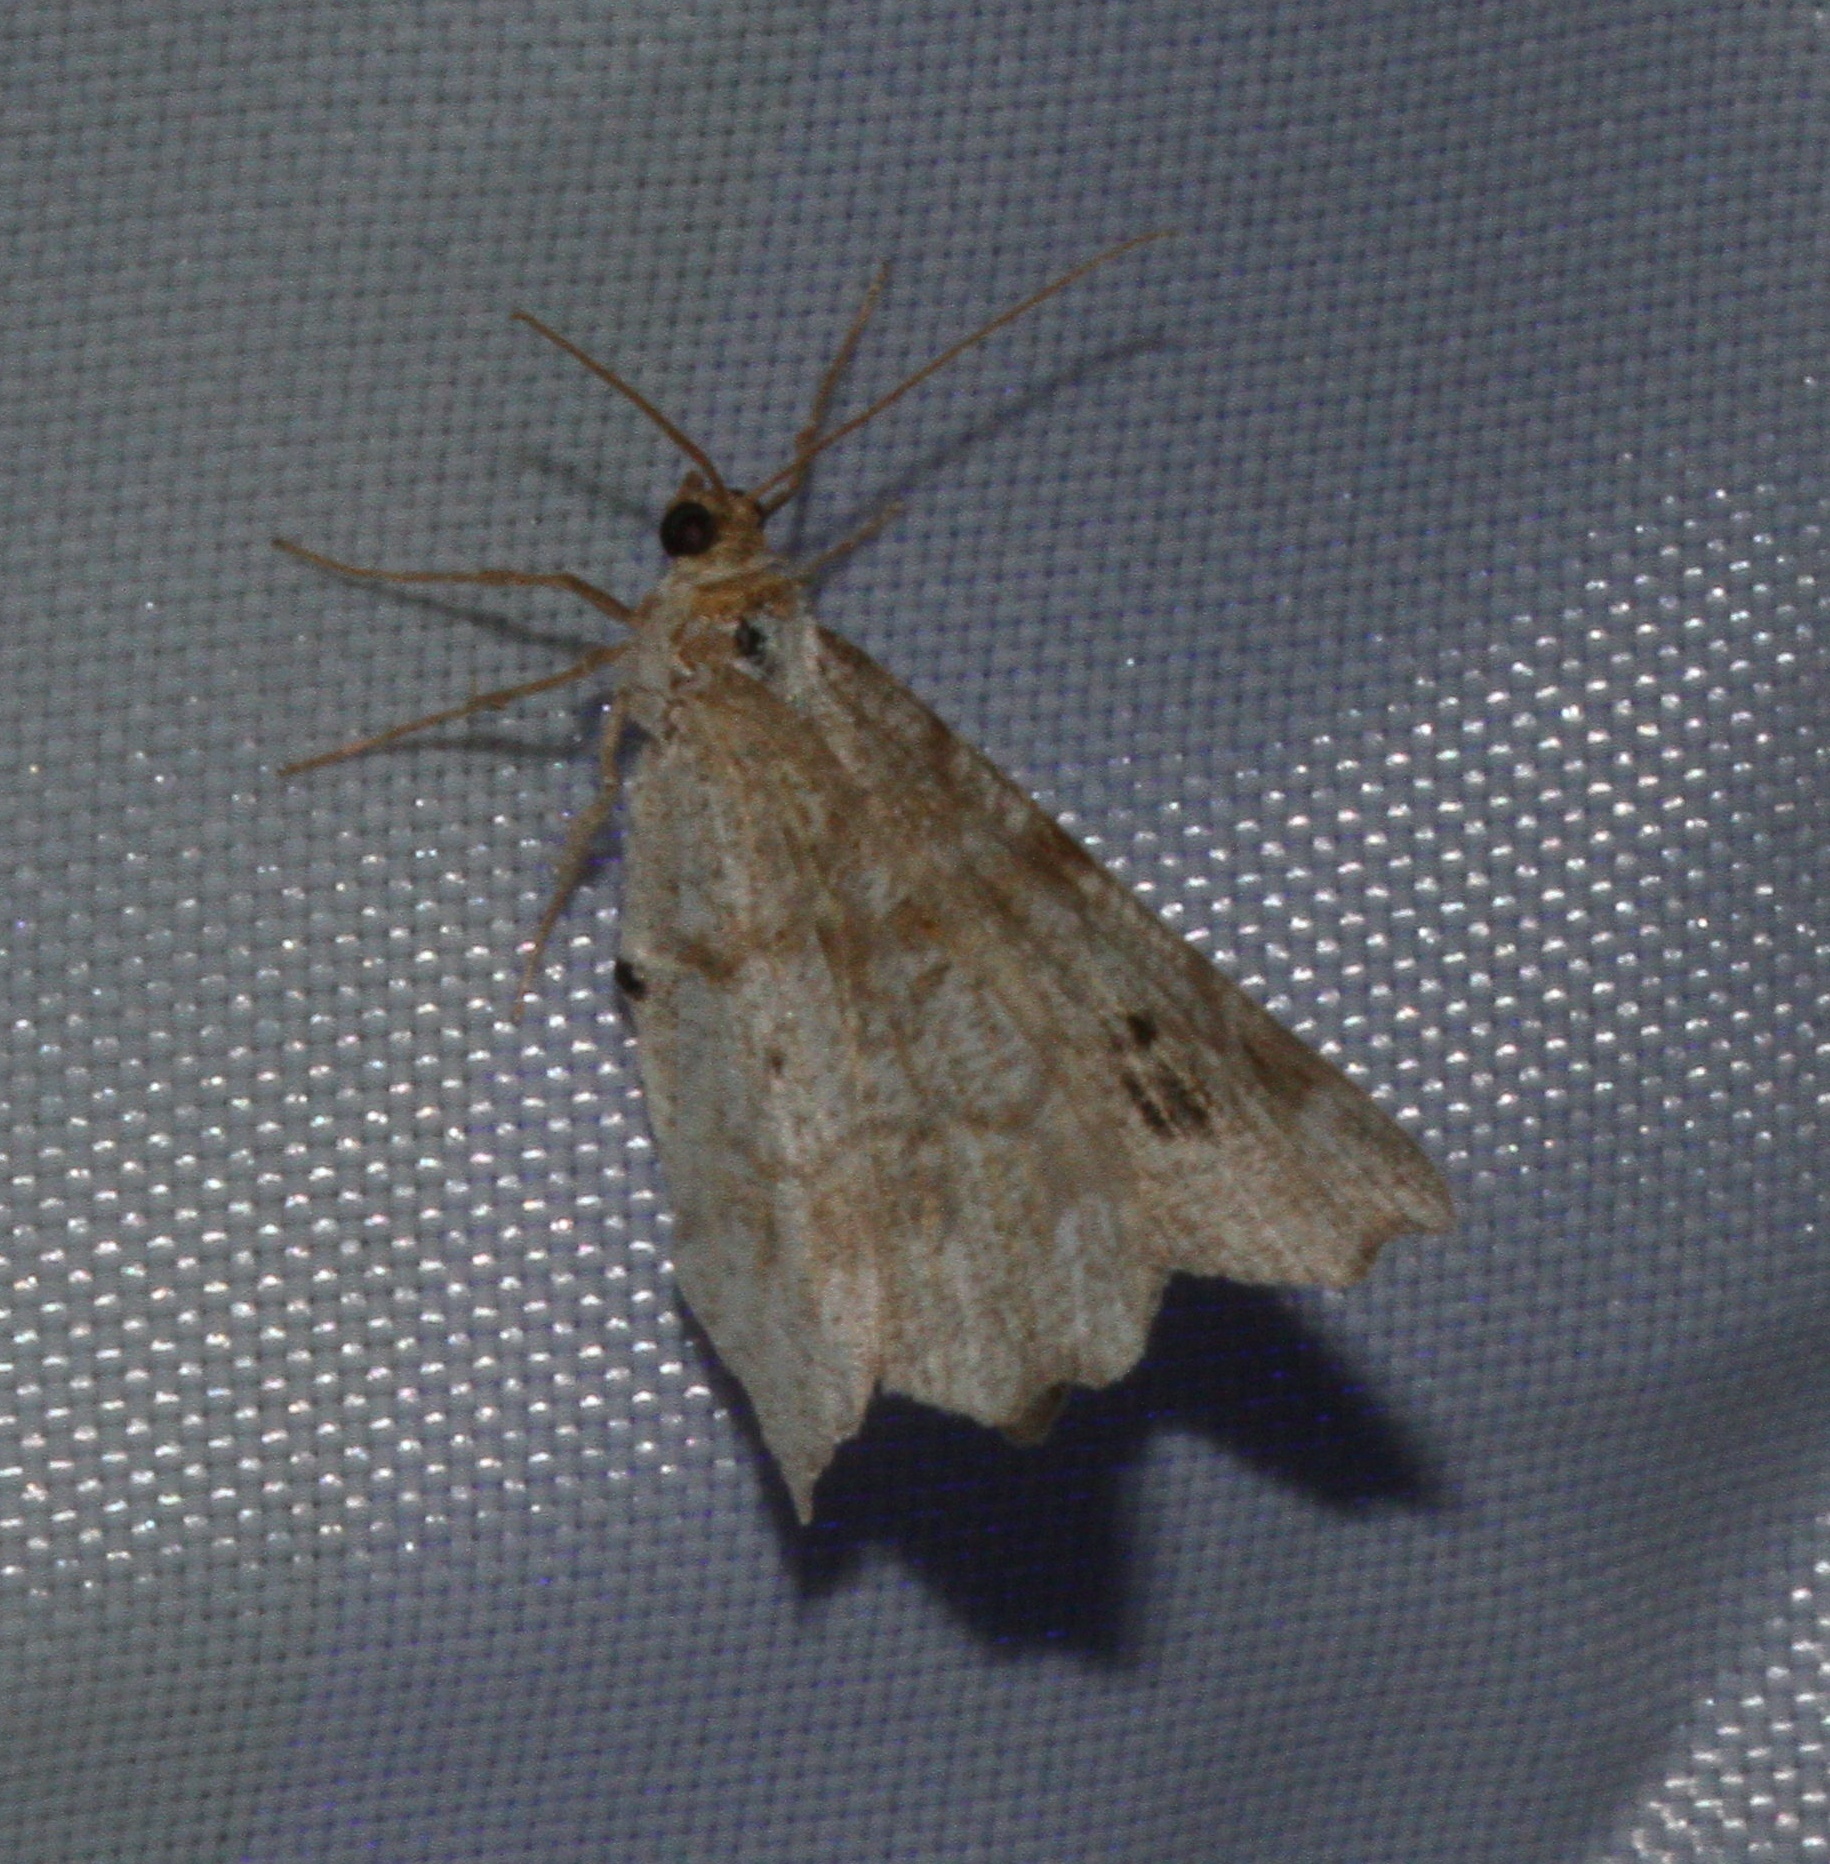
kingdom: Animalia
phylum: Arthropoda
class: Insecta
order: Lepidoptera
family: Geometridae
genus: Macaria
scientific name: Macaria notata
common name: Peacock moth
